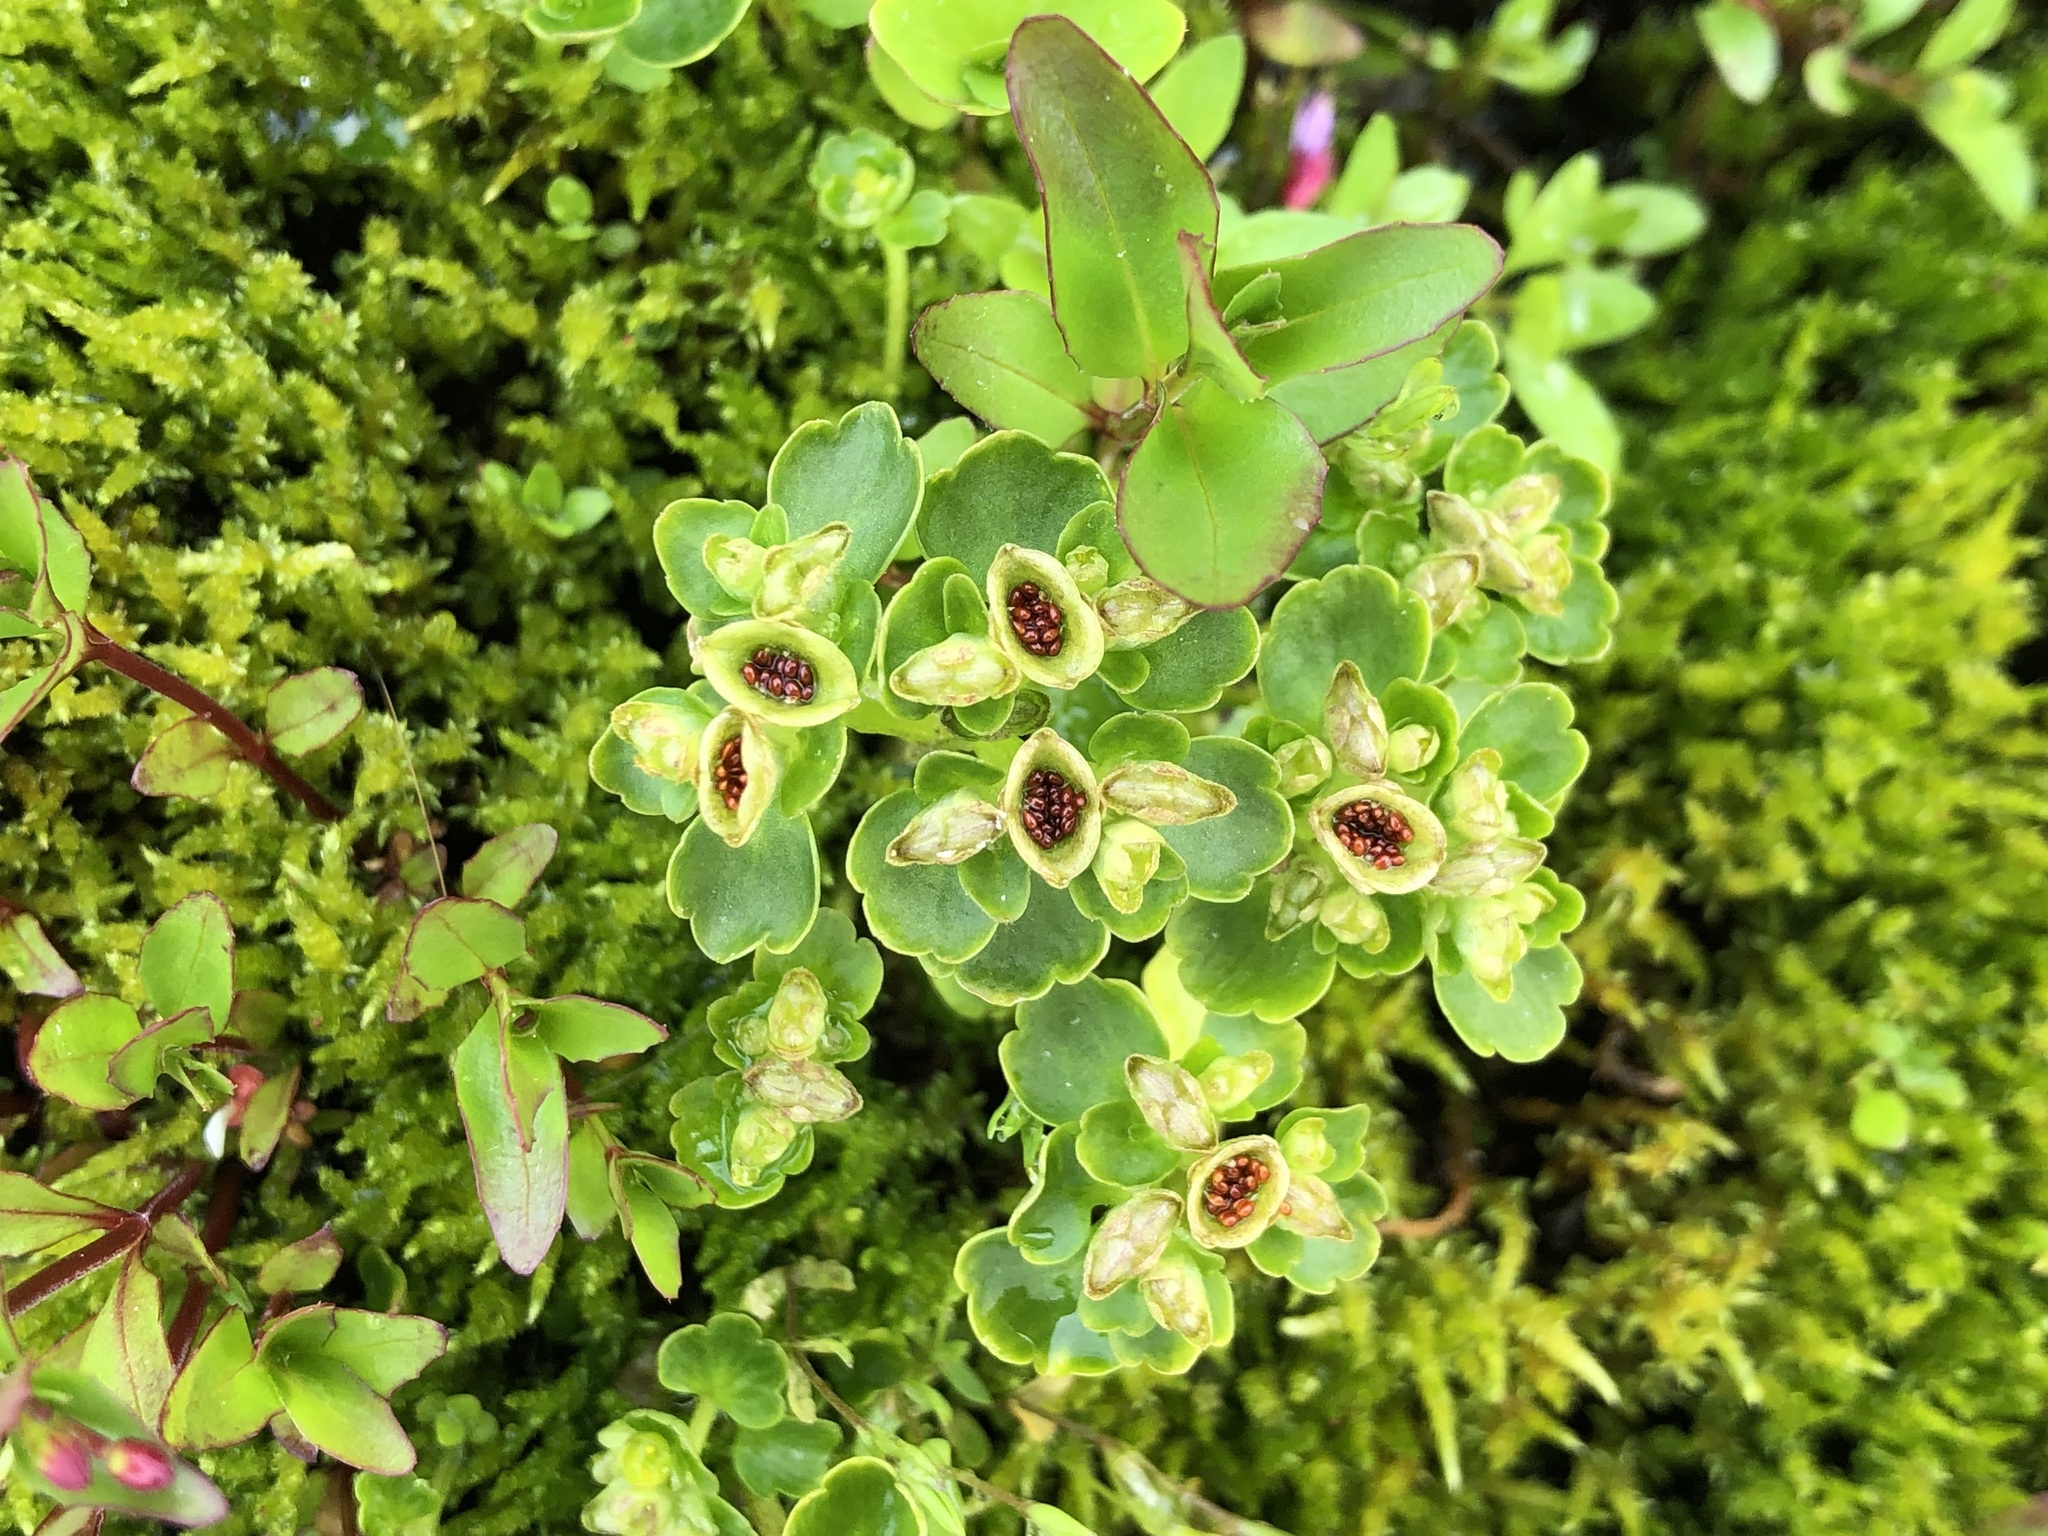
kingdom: Plantae
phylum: Tracheophyta
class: Magnoliopsida
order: Saxifragales
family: Saxifragaceae
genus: Chrysosplenium
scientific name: Chrysosplenium tetrandrum
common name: Green saxifrage
